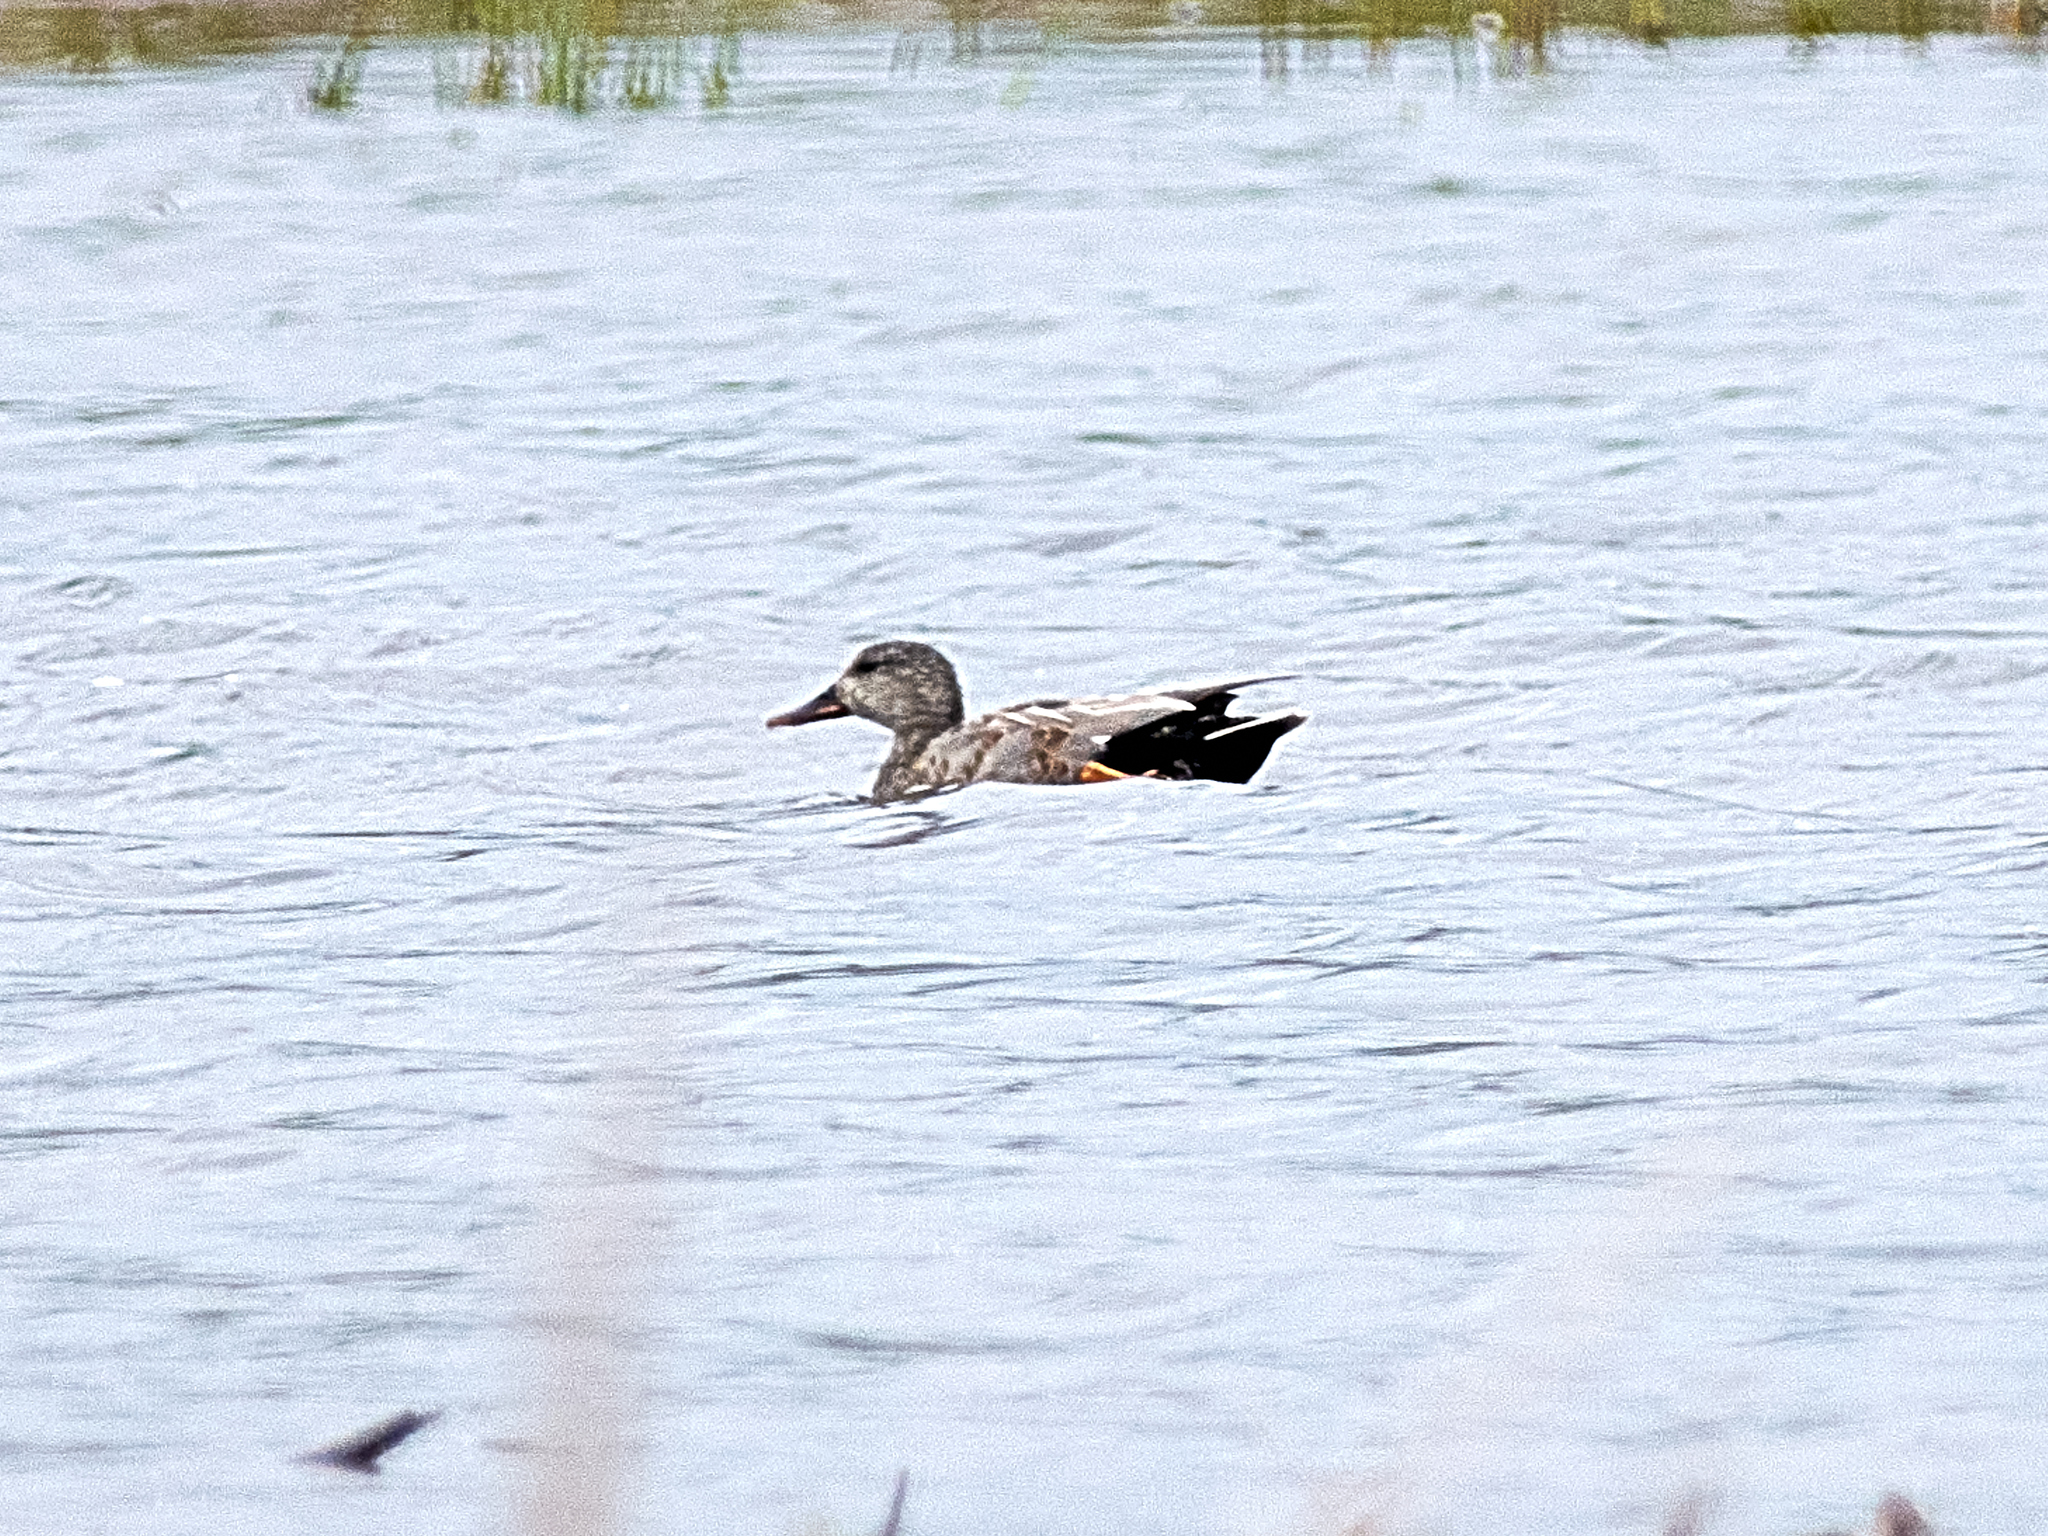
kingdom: Animalia
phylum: Chordata
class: Aves
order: Anseriformes
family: Anatidae
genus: Mareca
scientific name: Mareca strepera
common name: Gadwall
